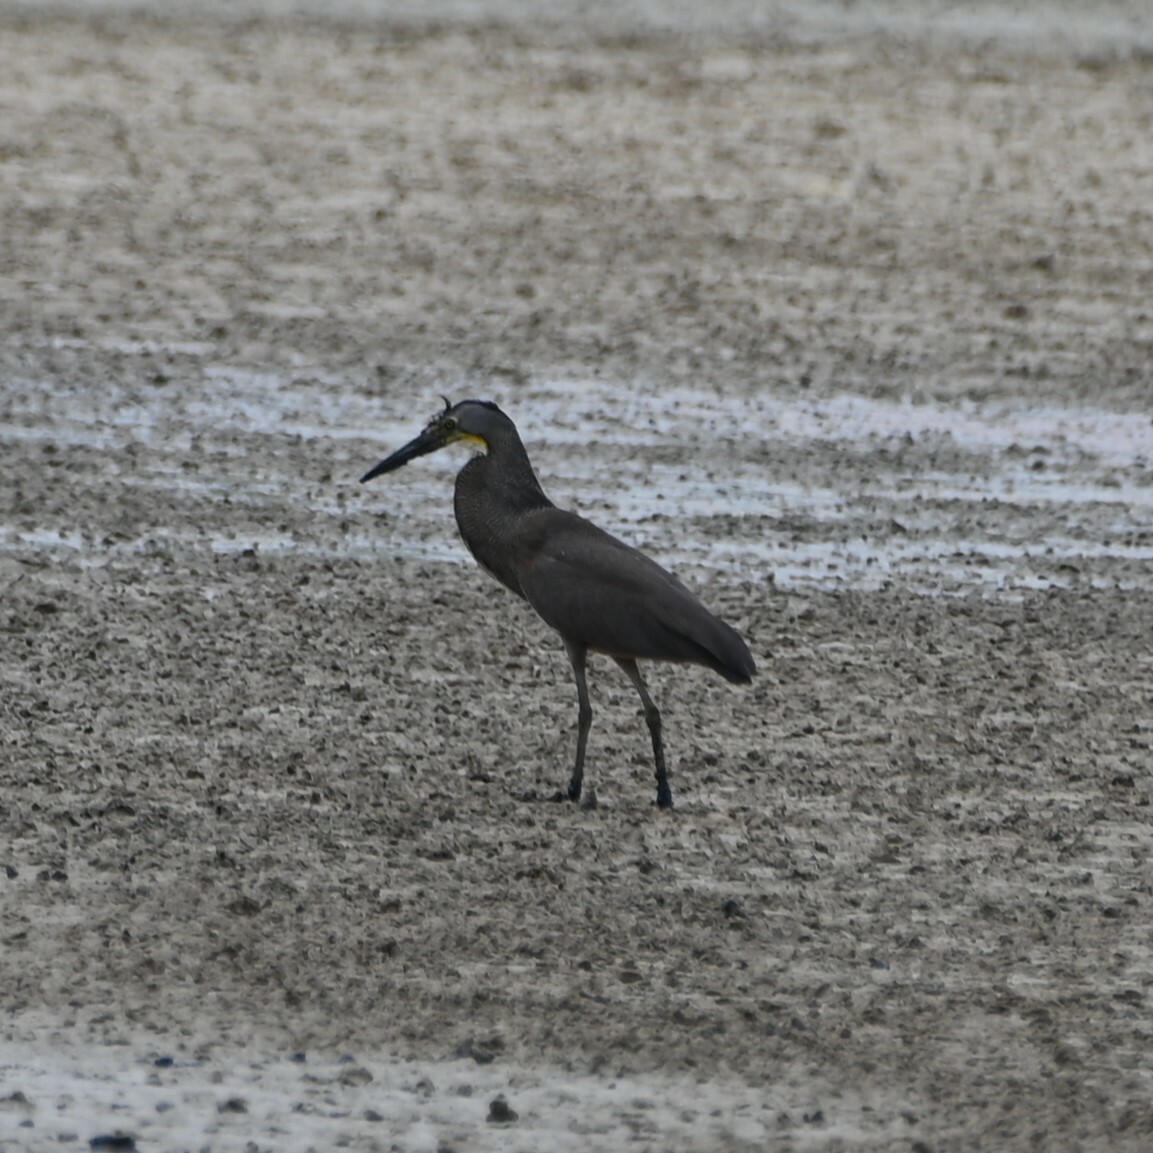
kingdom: Animalia
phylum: Chordata
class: Aves
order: Pelecaniformes
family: Ardeidae
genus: Tigrisoma
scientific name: Tigrisoma mexicanum
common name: Bare-throated tiger-heron
